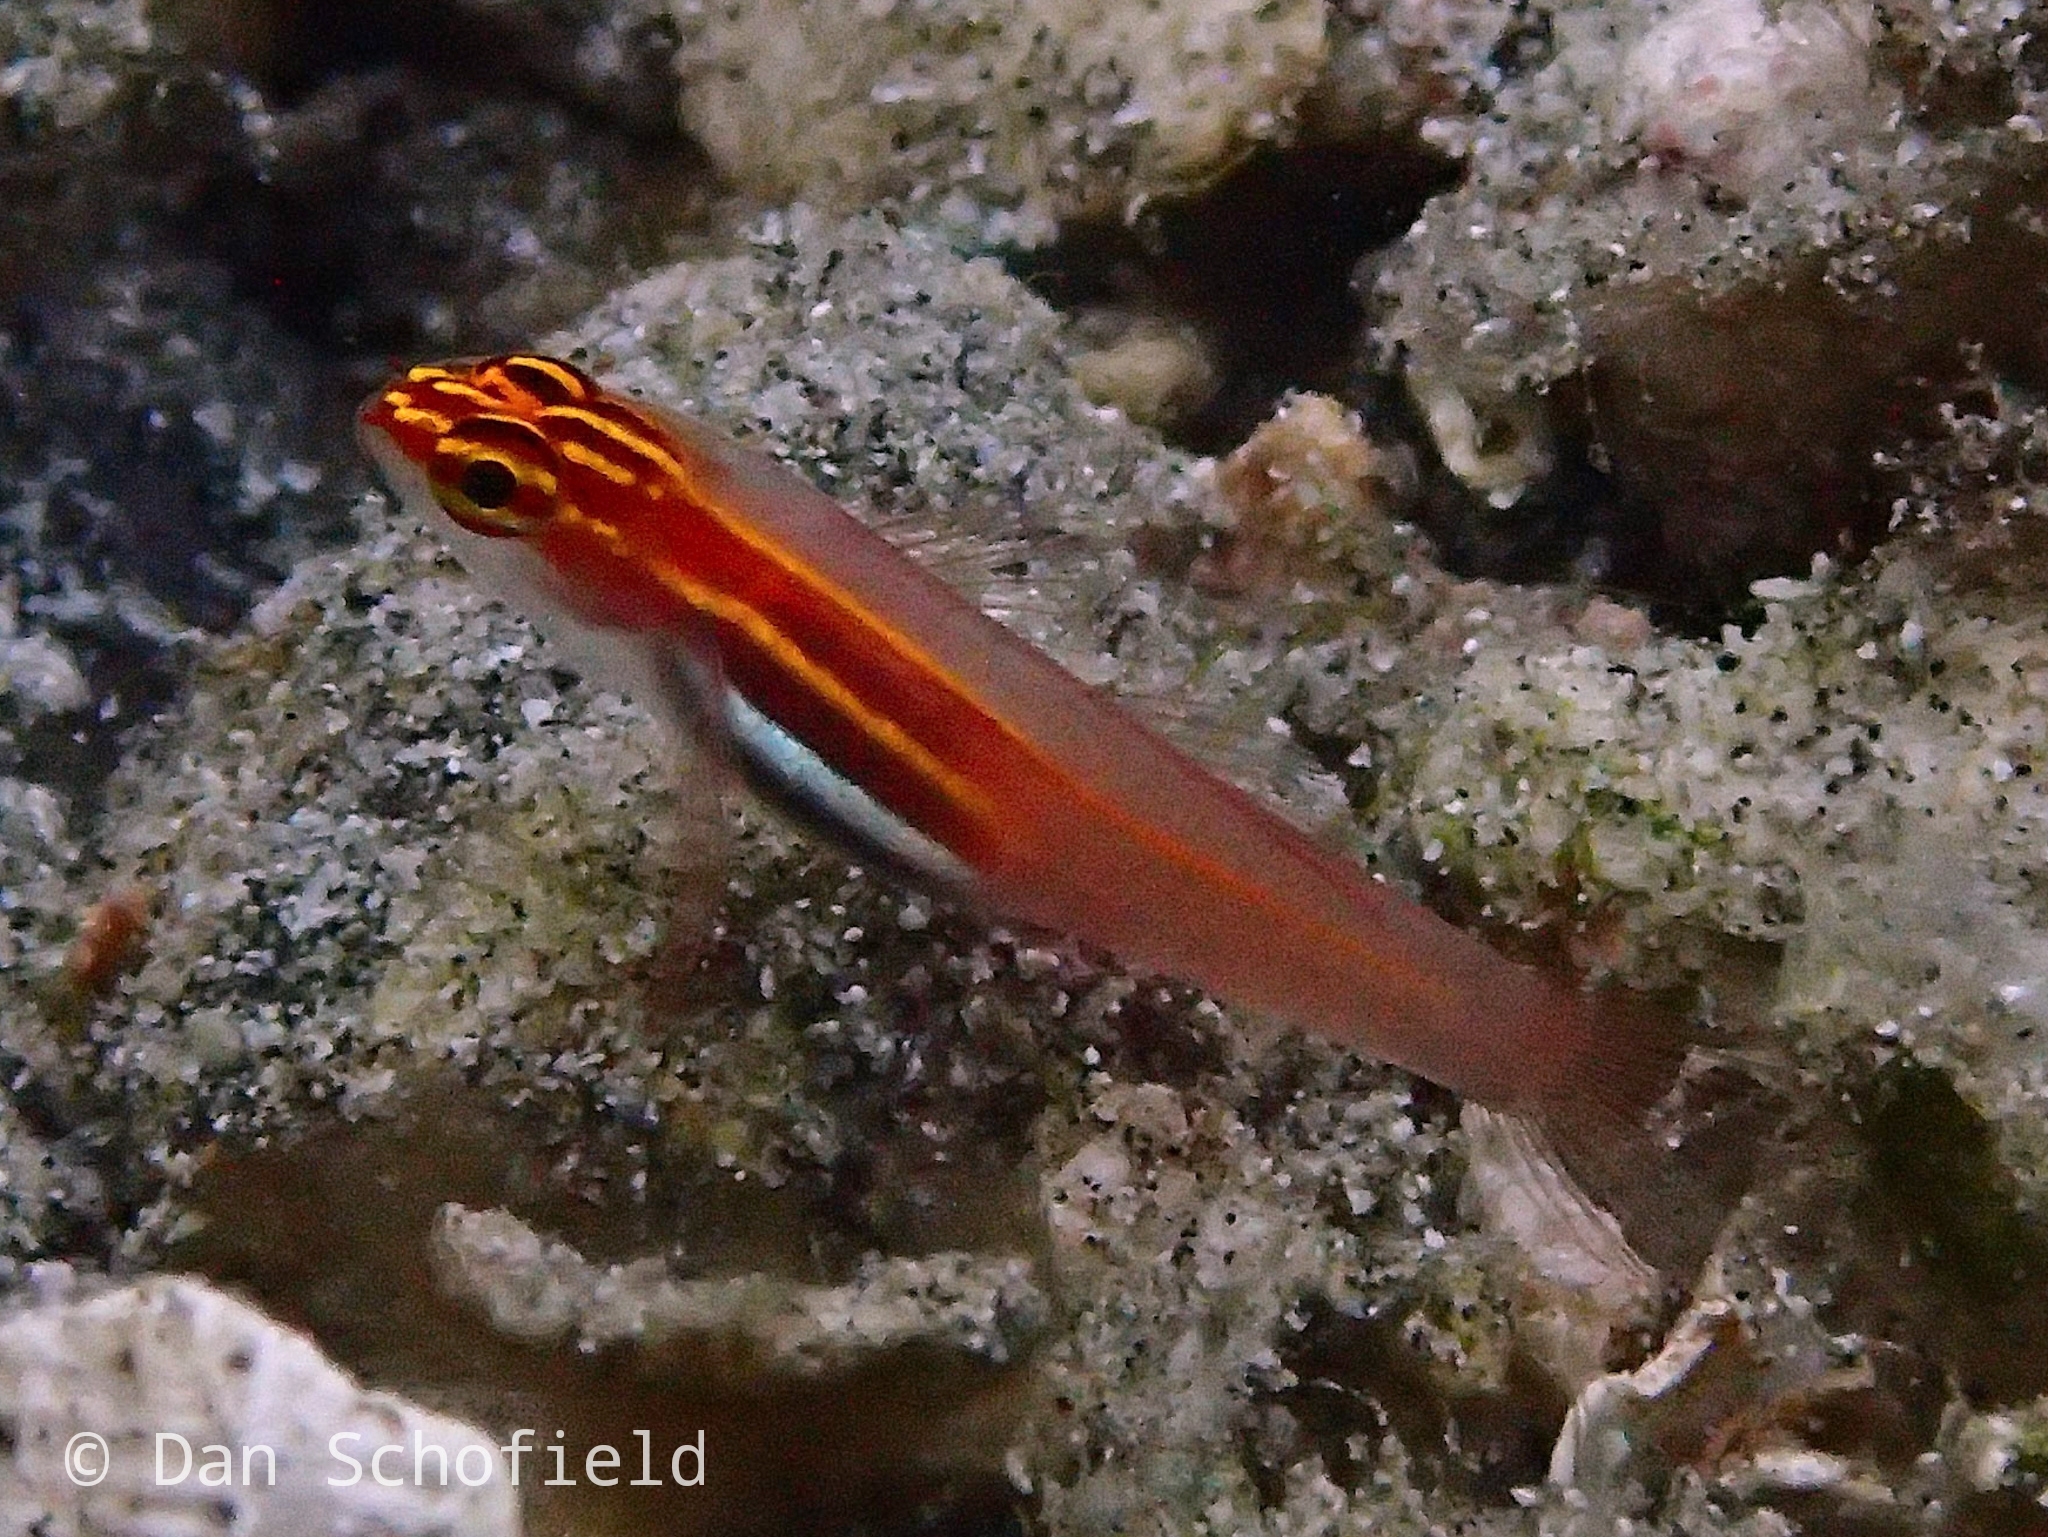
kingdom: Animalia
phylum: Chordata
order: Perciformes
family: Gobiidae
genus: Eviota
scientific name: Eviota atriventris
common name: Blackbelly dwarfgoby
